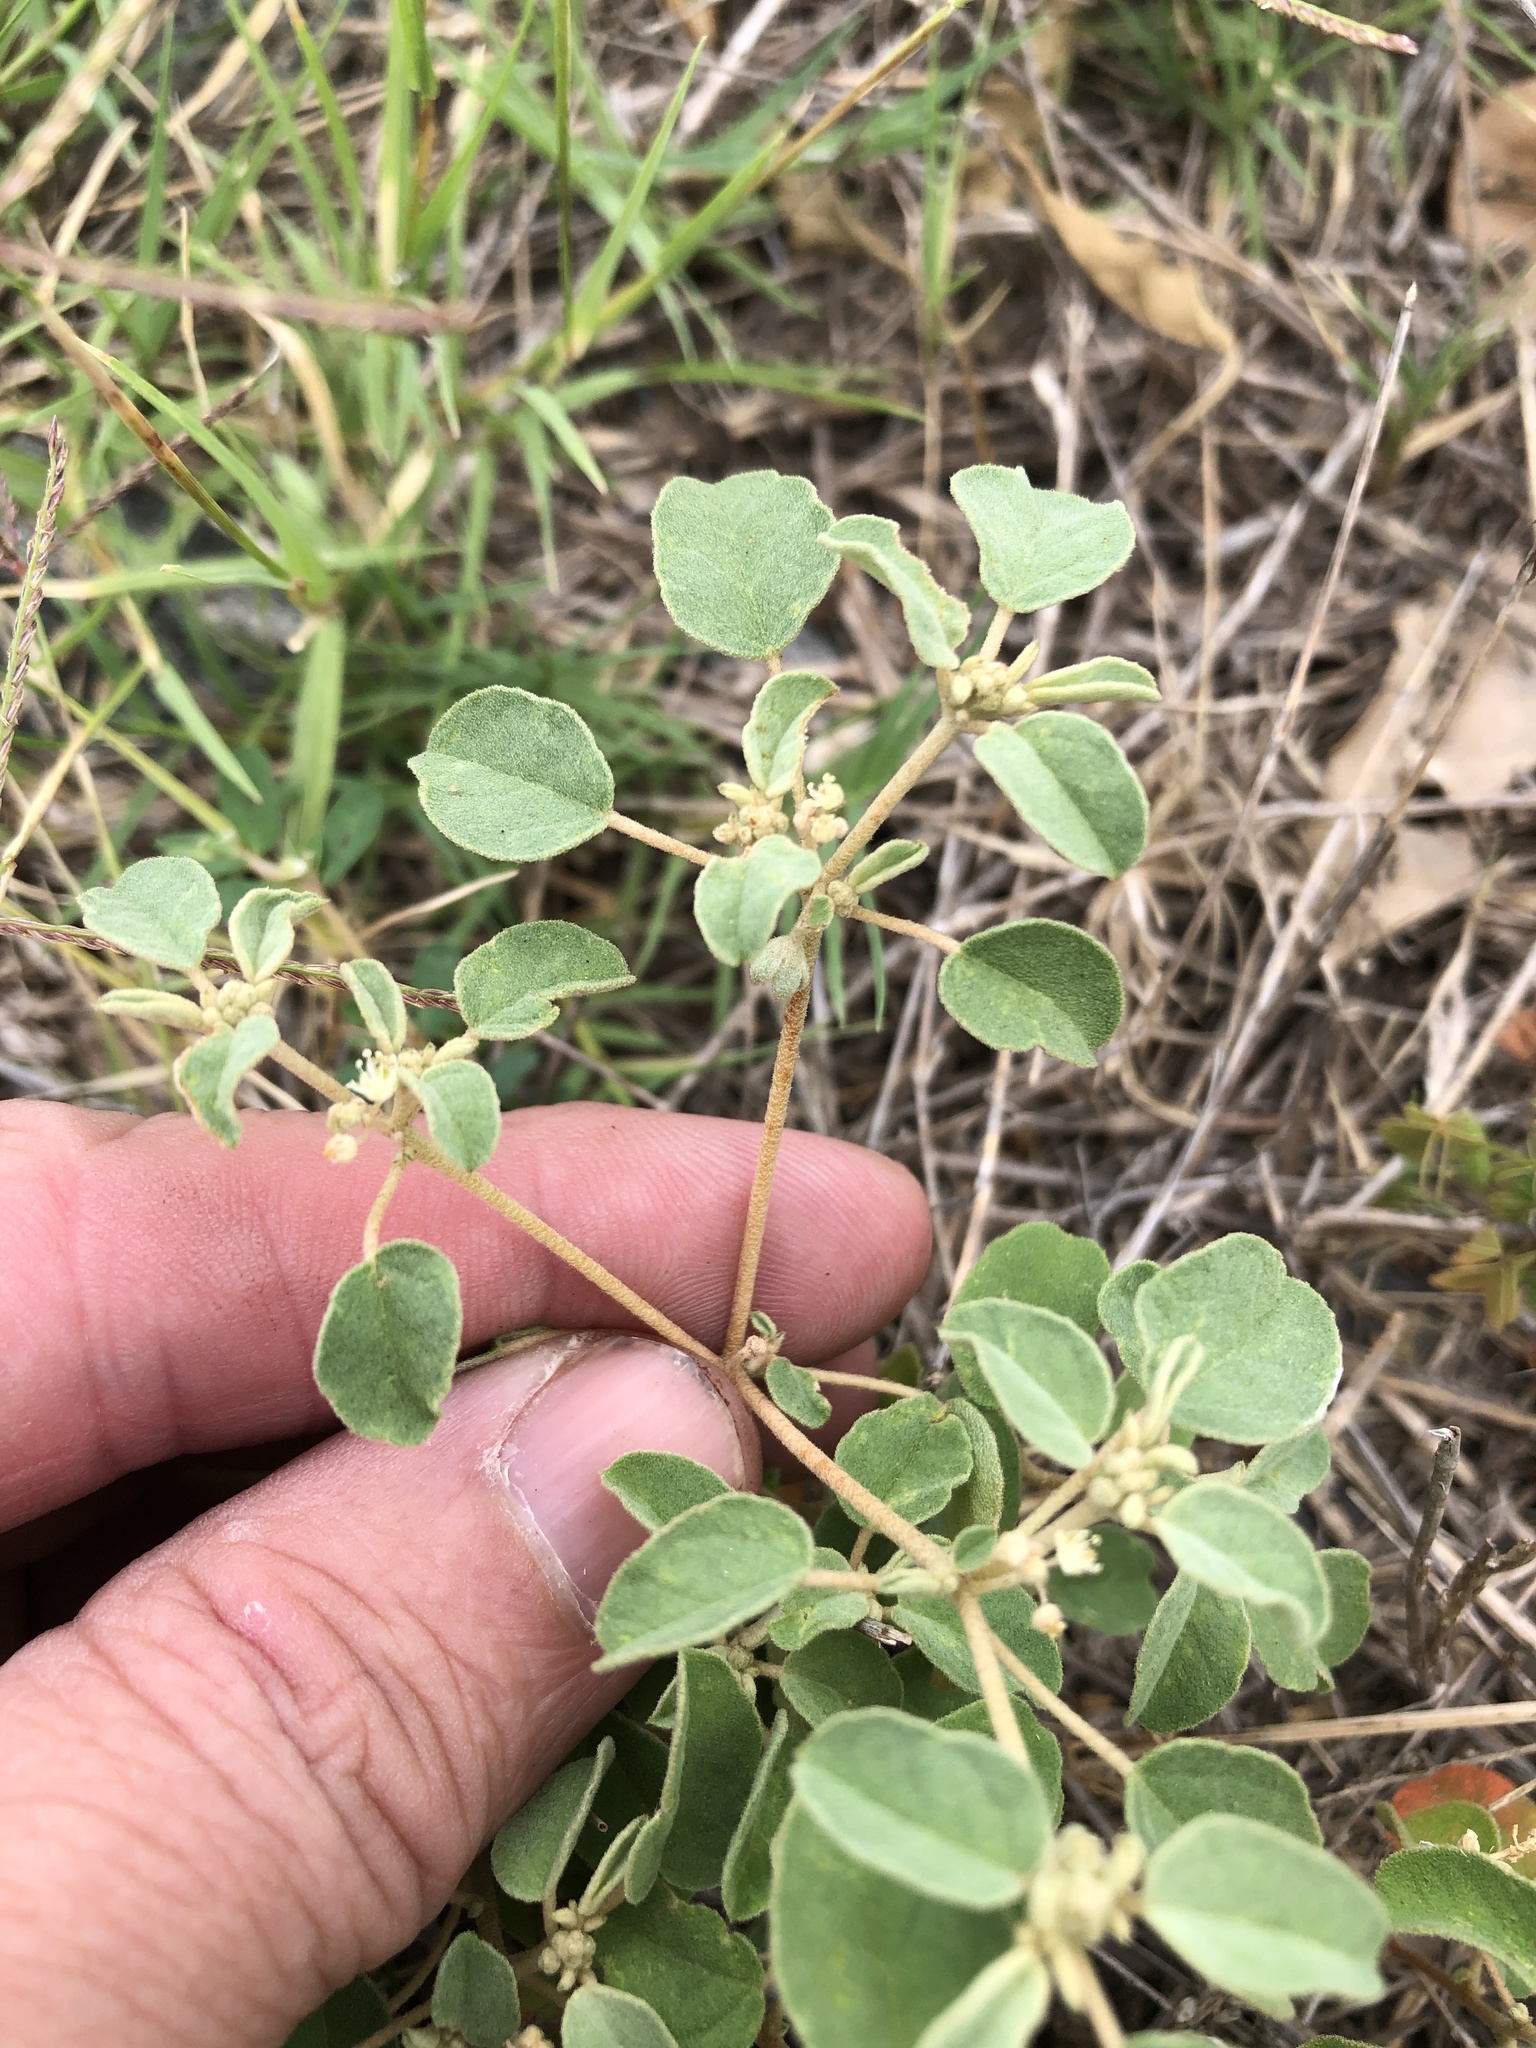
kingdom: Plantae
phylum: Tracheophyta
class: Magnoliopsida
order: Malpighiales
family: Euphorbiaceae
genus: Croton
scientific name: Croton monanthogynus
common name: One-seed croton
